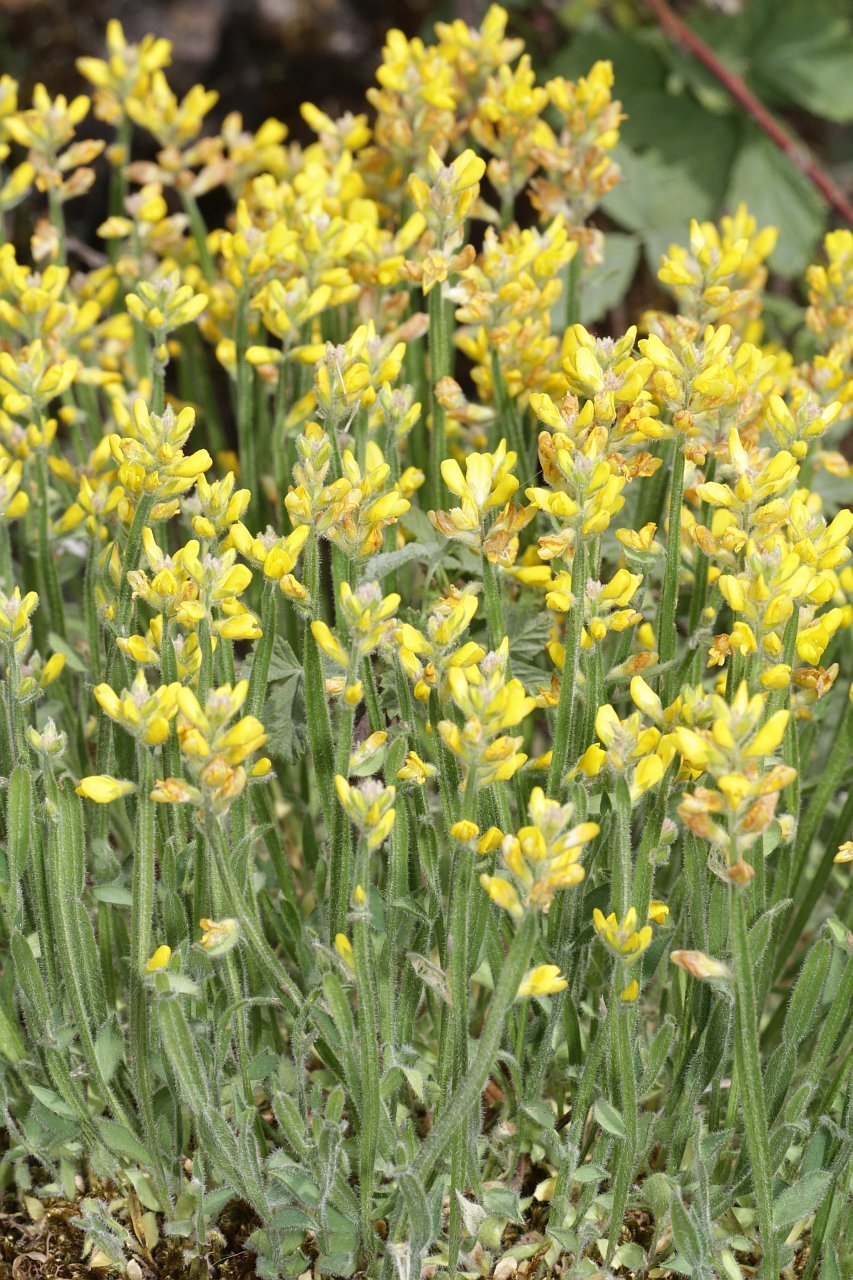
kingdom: Plantae
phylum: Tracheophyta
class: Magnoliopsida
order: Fabales
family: Fabaceae
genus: Genista
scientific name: Genista sagittalis
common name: Winged greenweed
